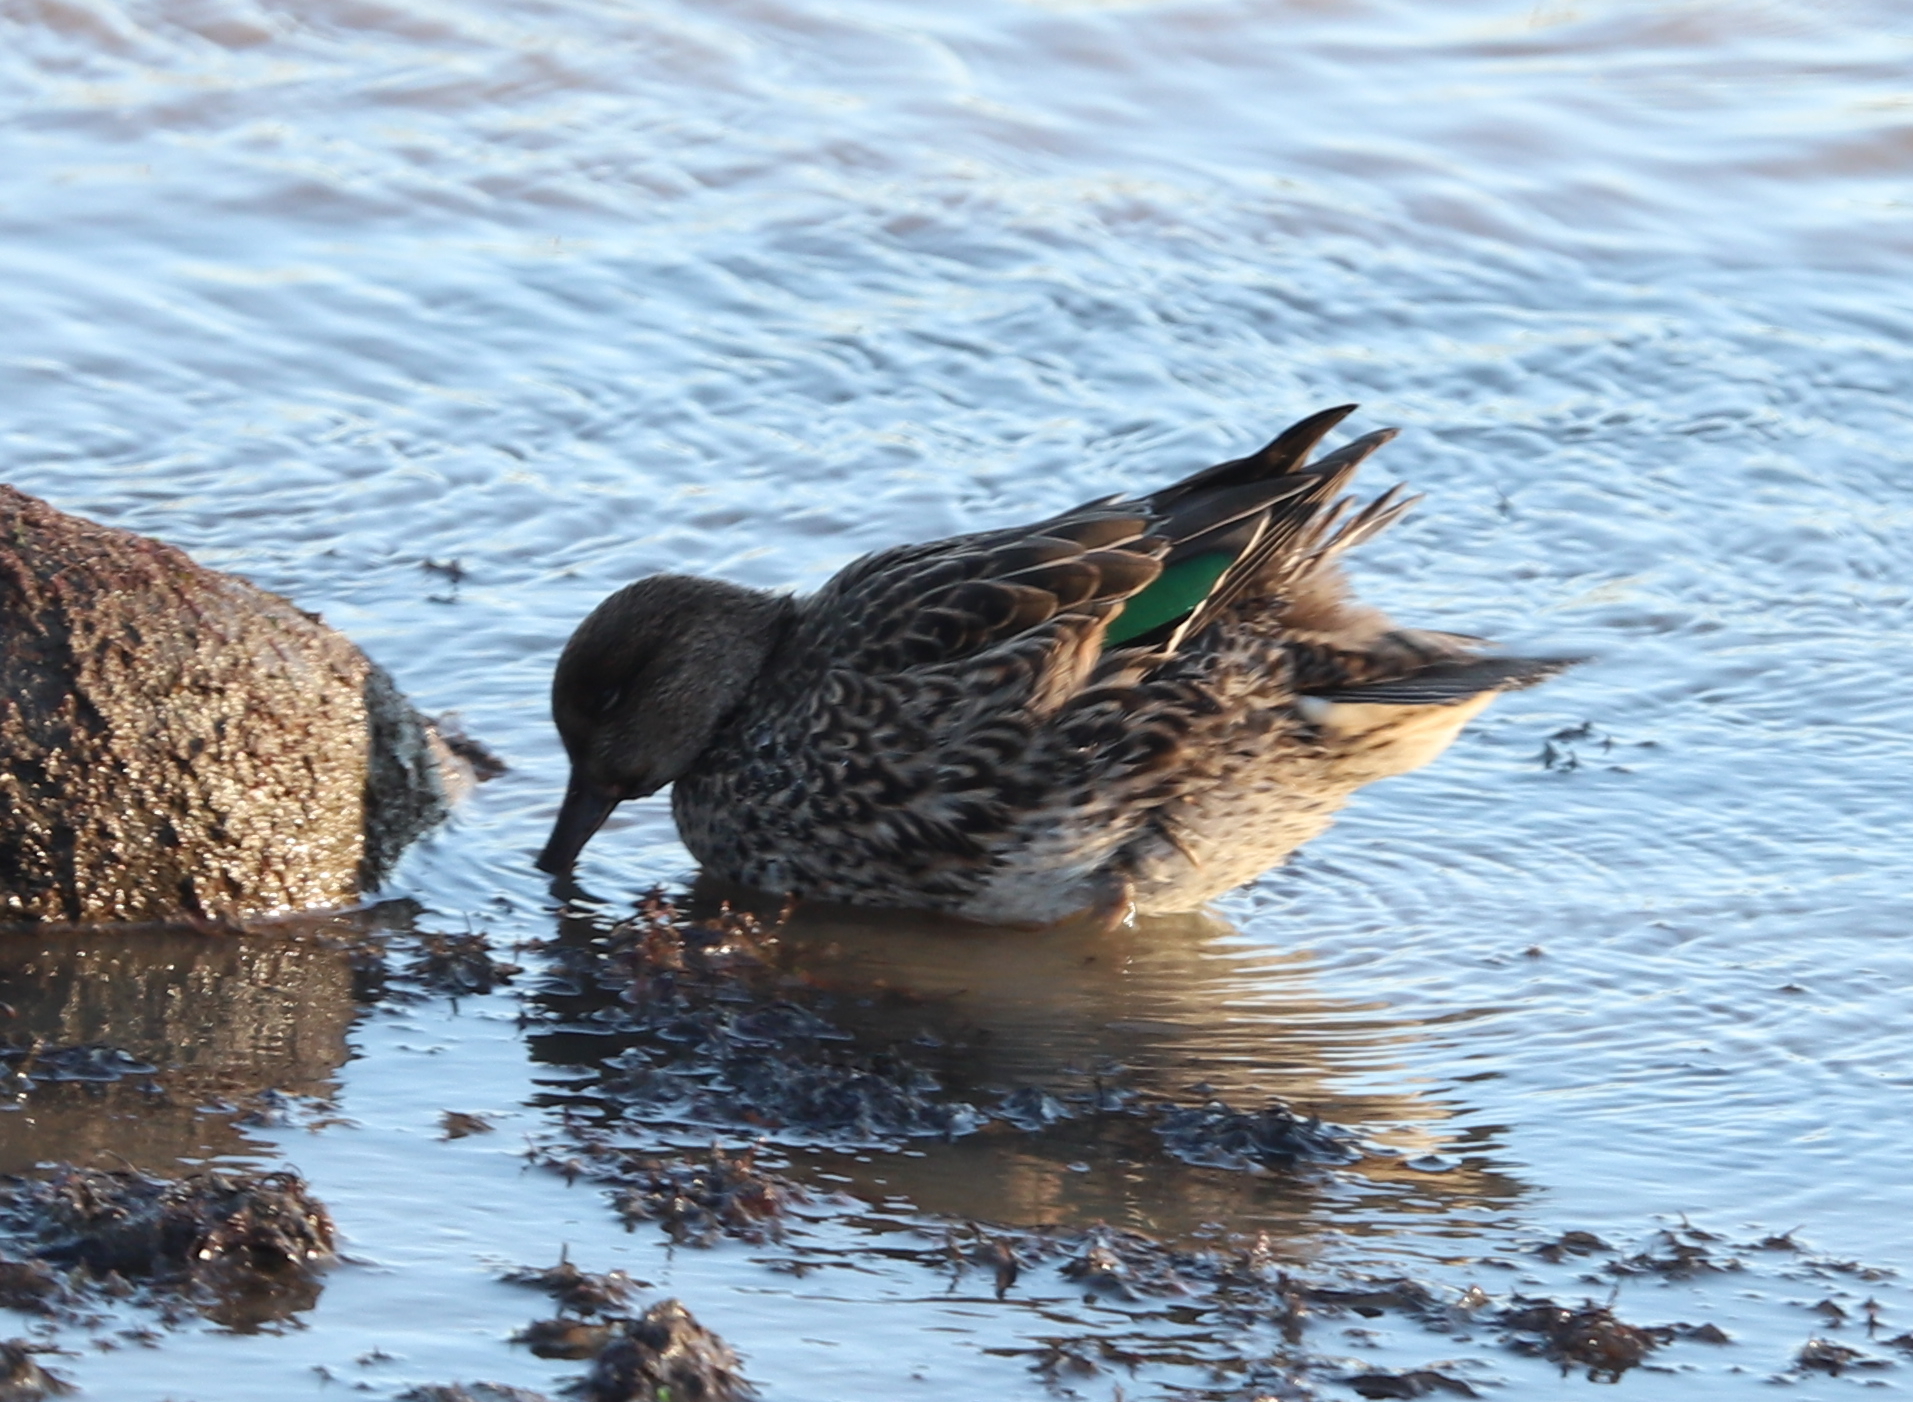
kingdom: Animalia
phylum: Chordata
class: Aves
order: Anseriformes
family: Anatidae
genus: Anas
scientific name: Anas crecca
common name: Eurasian teal
